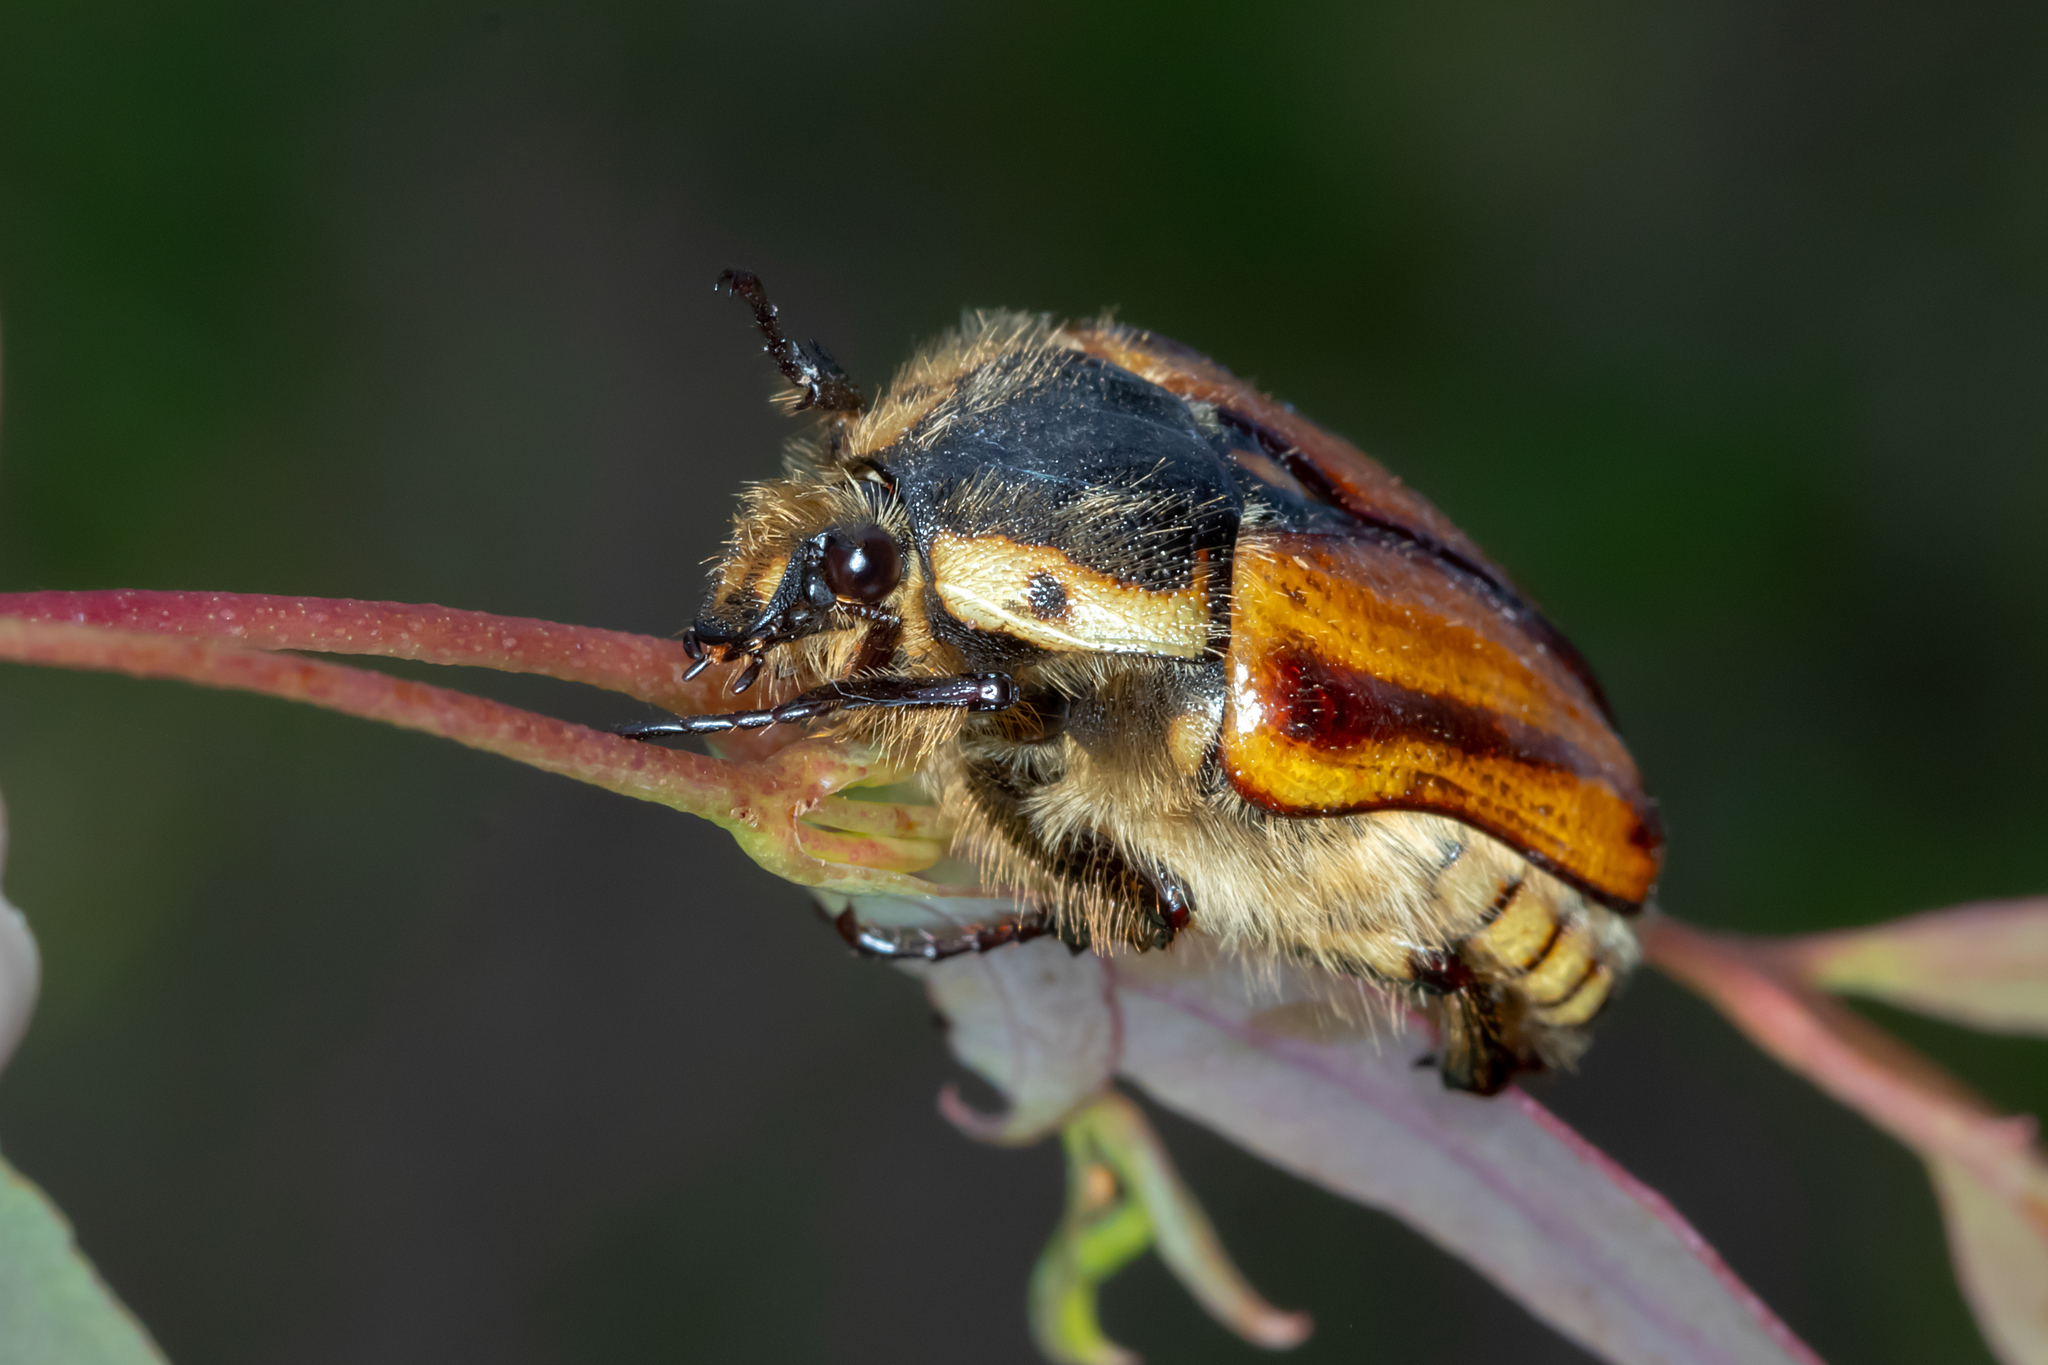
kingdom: Animalia
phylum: Arthropoda
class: Insecta
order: Coleoptera
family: Scarabaeidae
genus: Chondropyga
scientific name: Chondropyga gulosa
